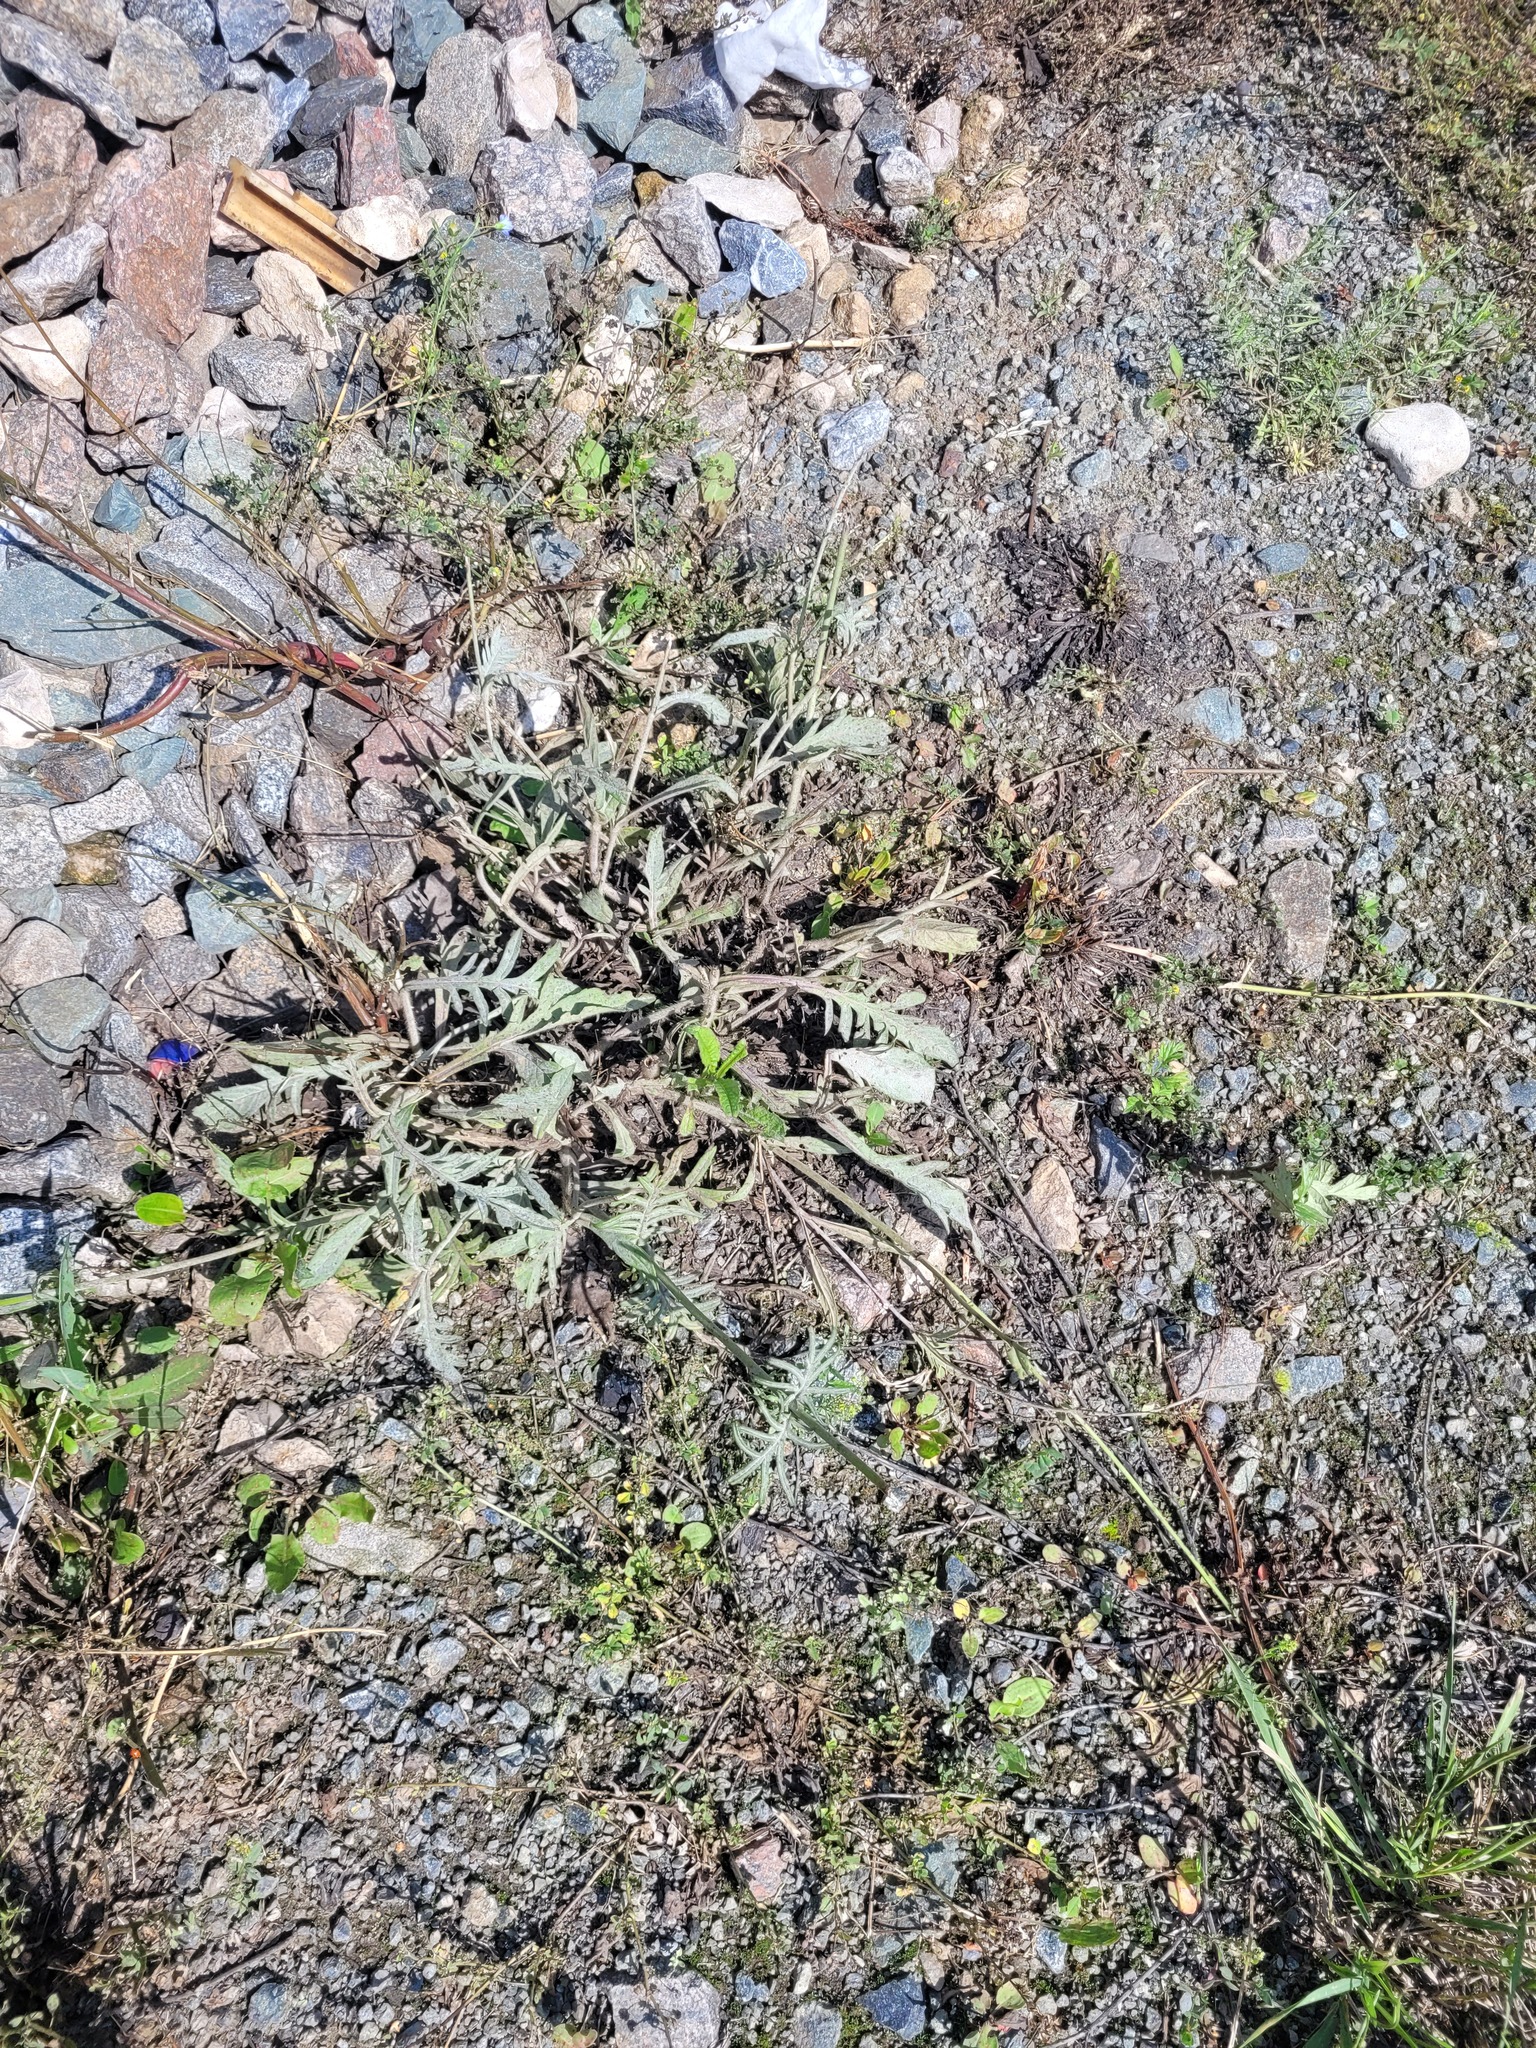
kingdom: Plantae
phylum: Tracheophyta
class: Magnoliopsida
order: Dipsacales
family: Caprifoliaceae
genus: Knautia
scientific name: Knautia arvensis
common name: Field scabiosa
